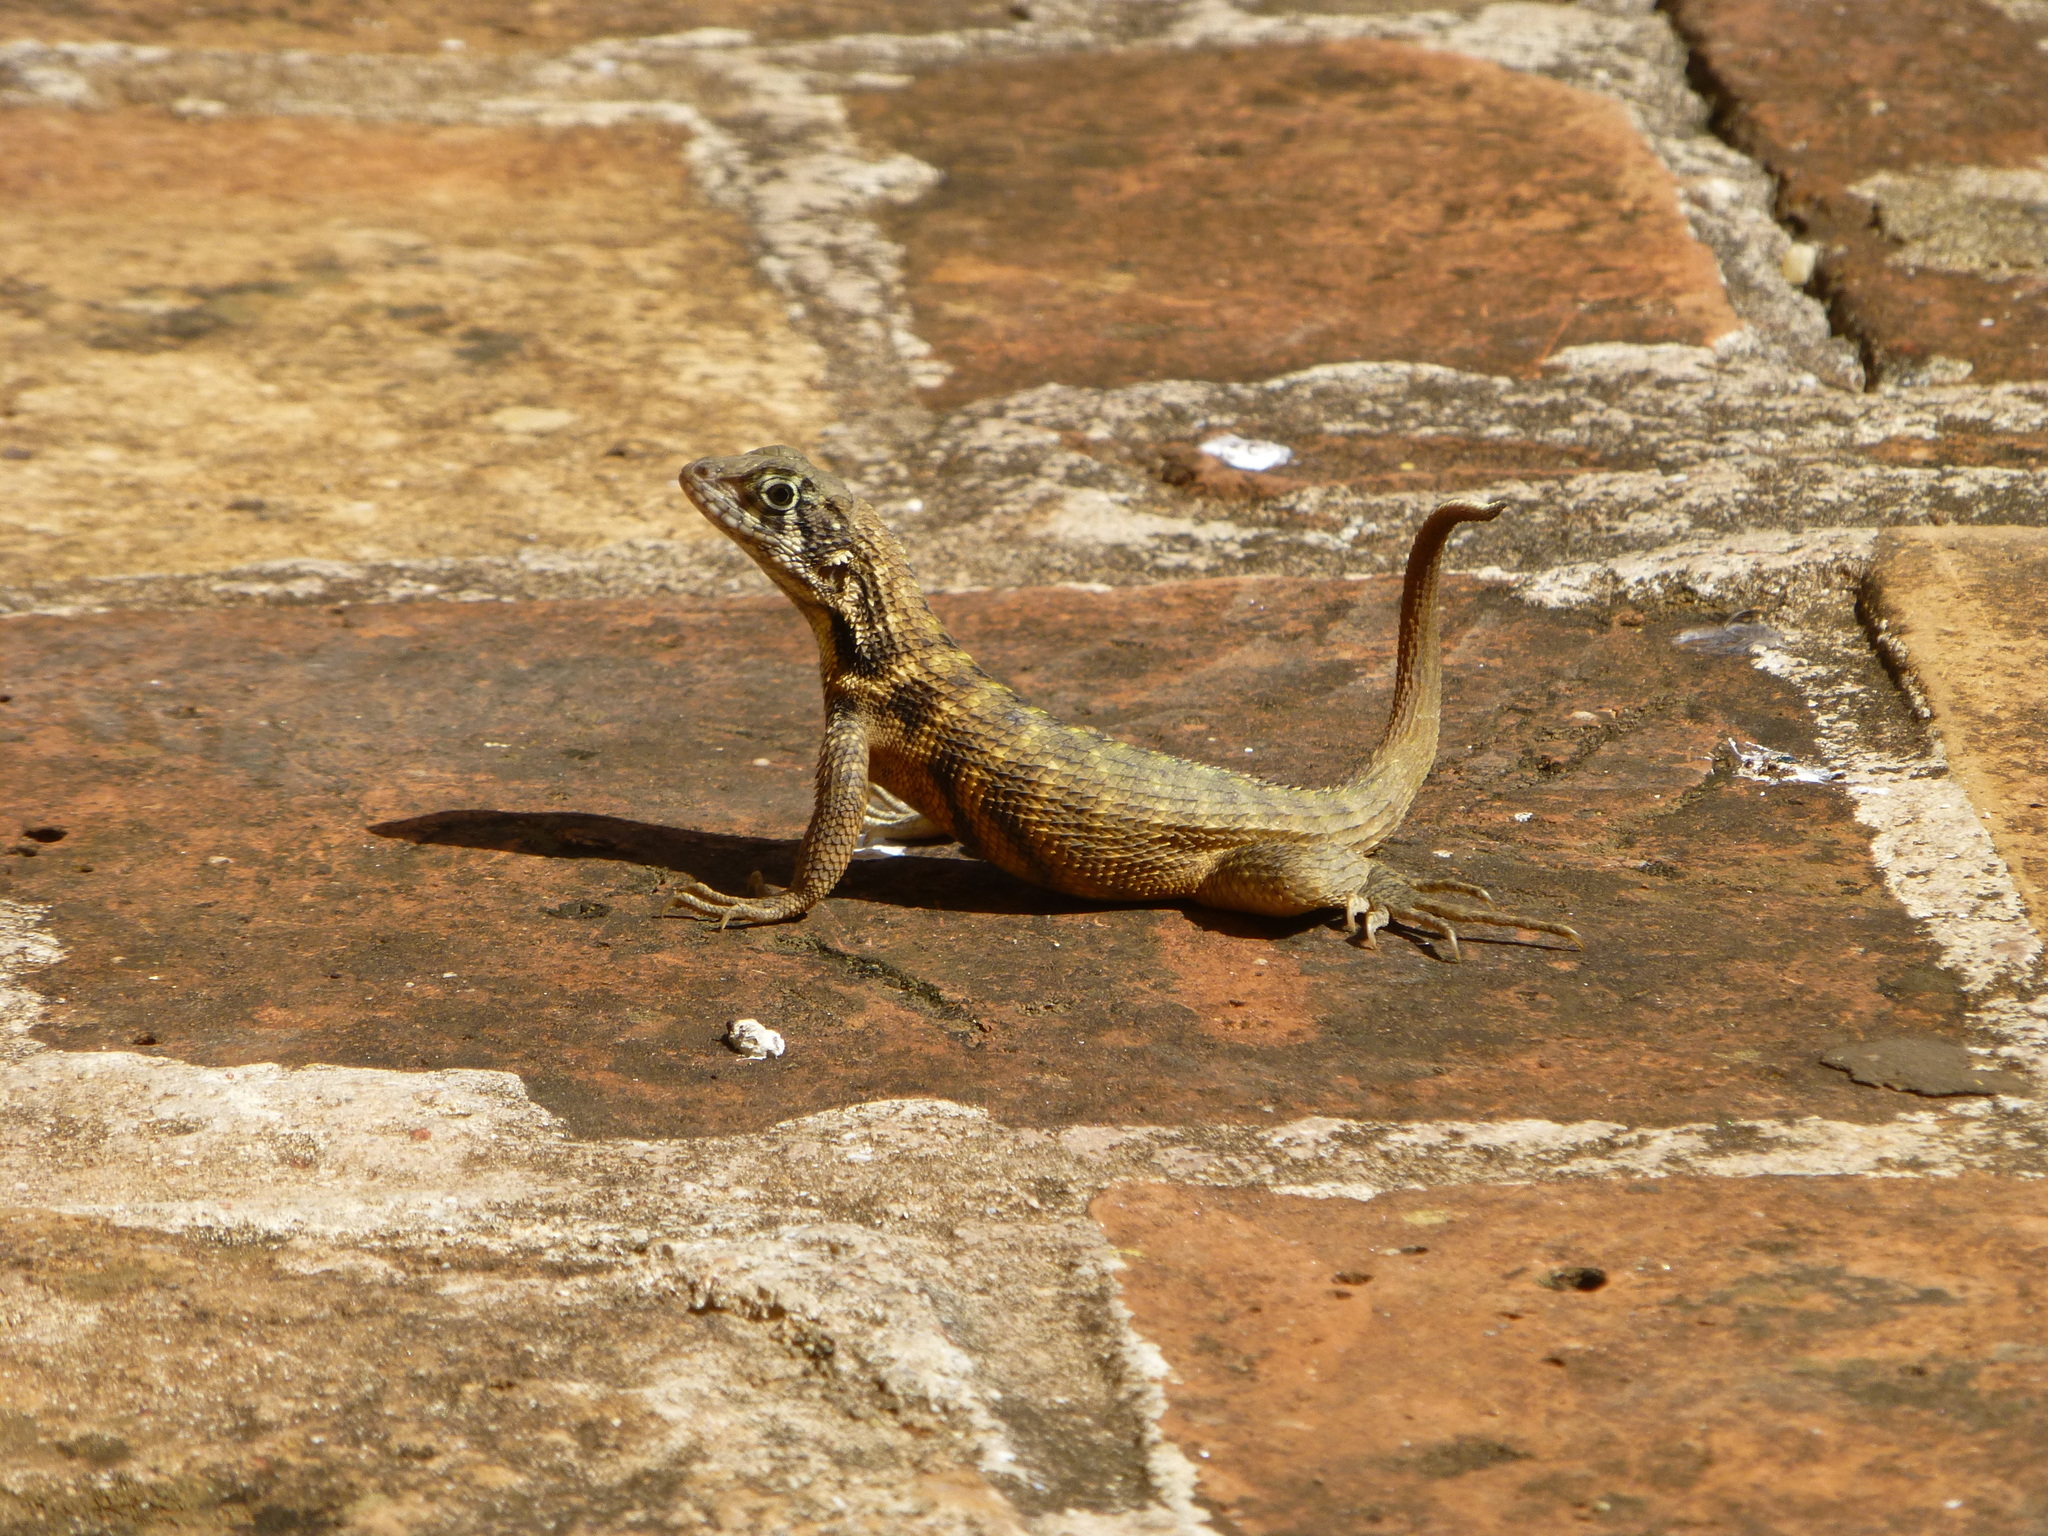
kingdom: Animalia
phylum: Chordata
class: Squamata
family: Leiocephalidae
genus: Leiocephalus
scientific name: Leiocephalus carinatus
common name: Northern curly-tailed lizard
